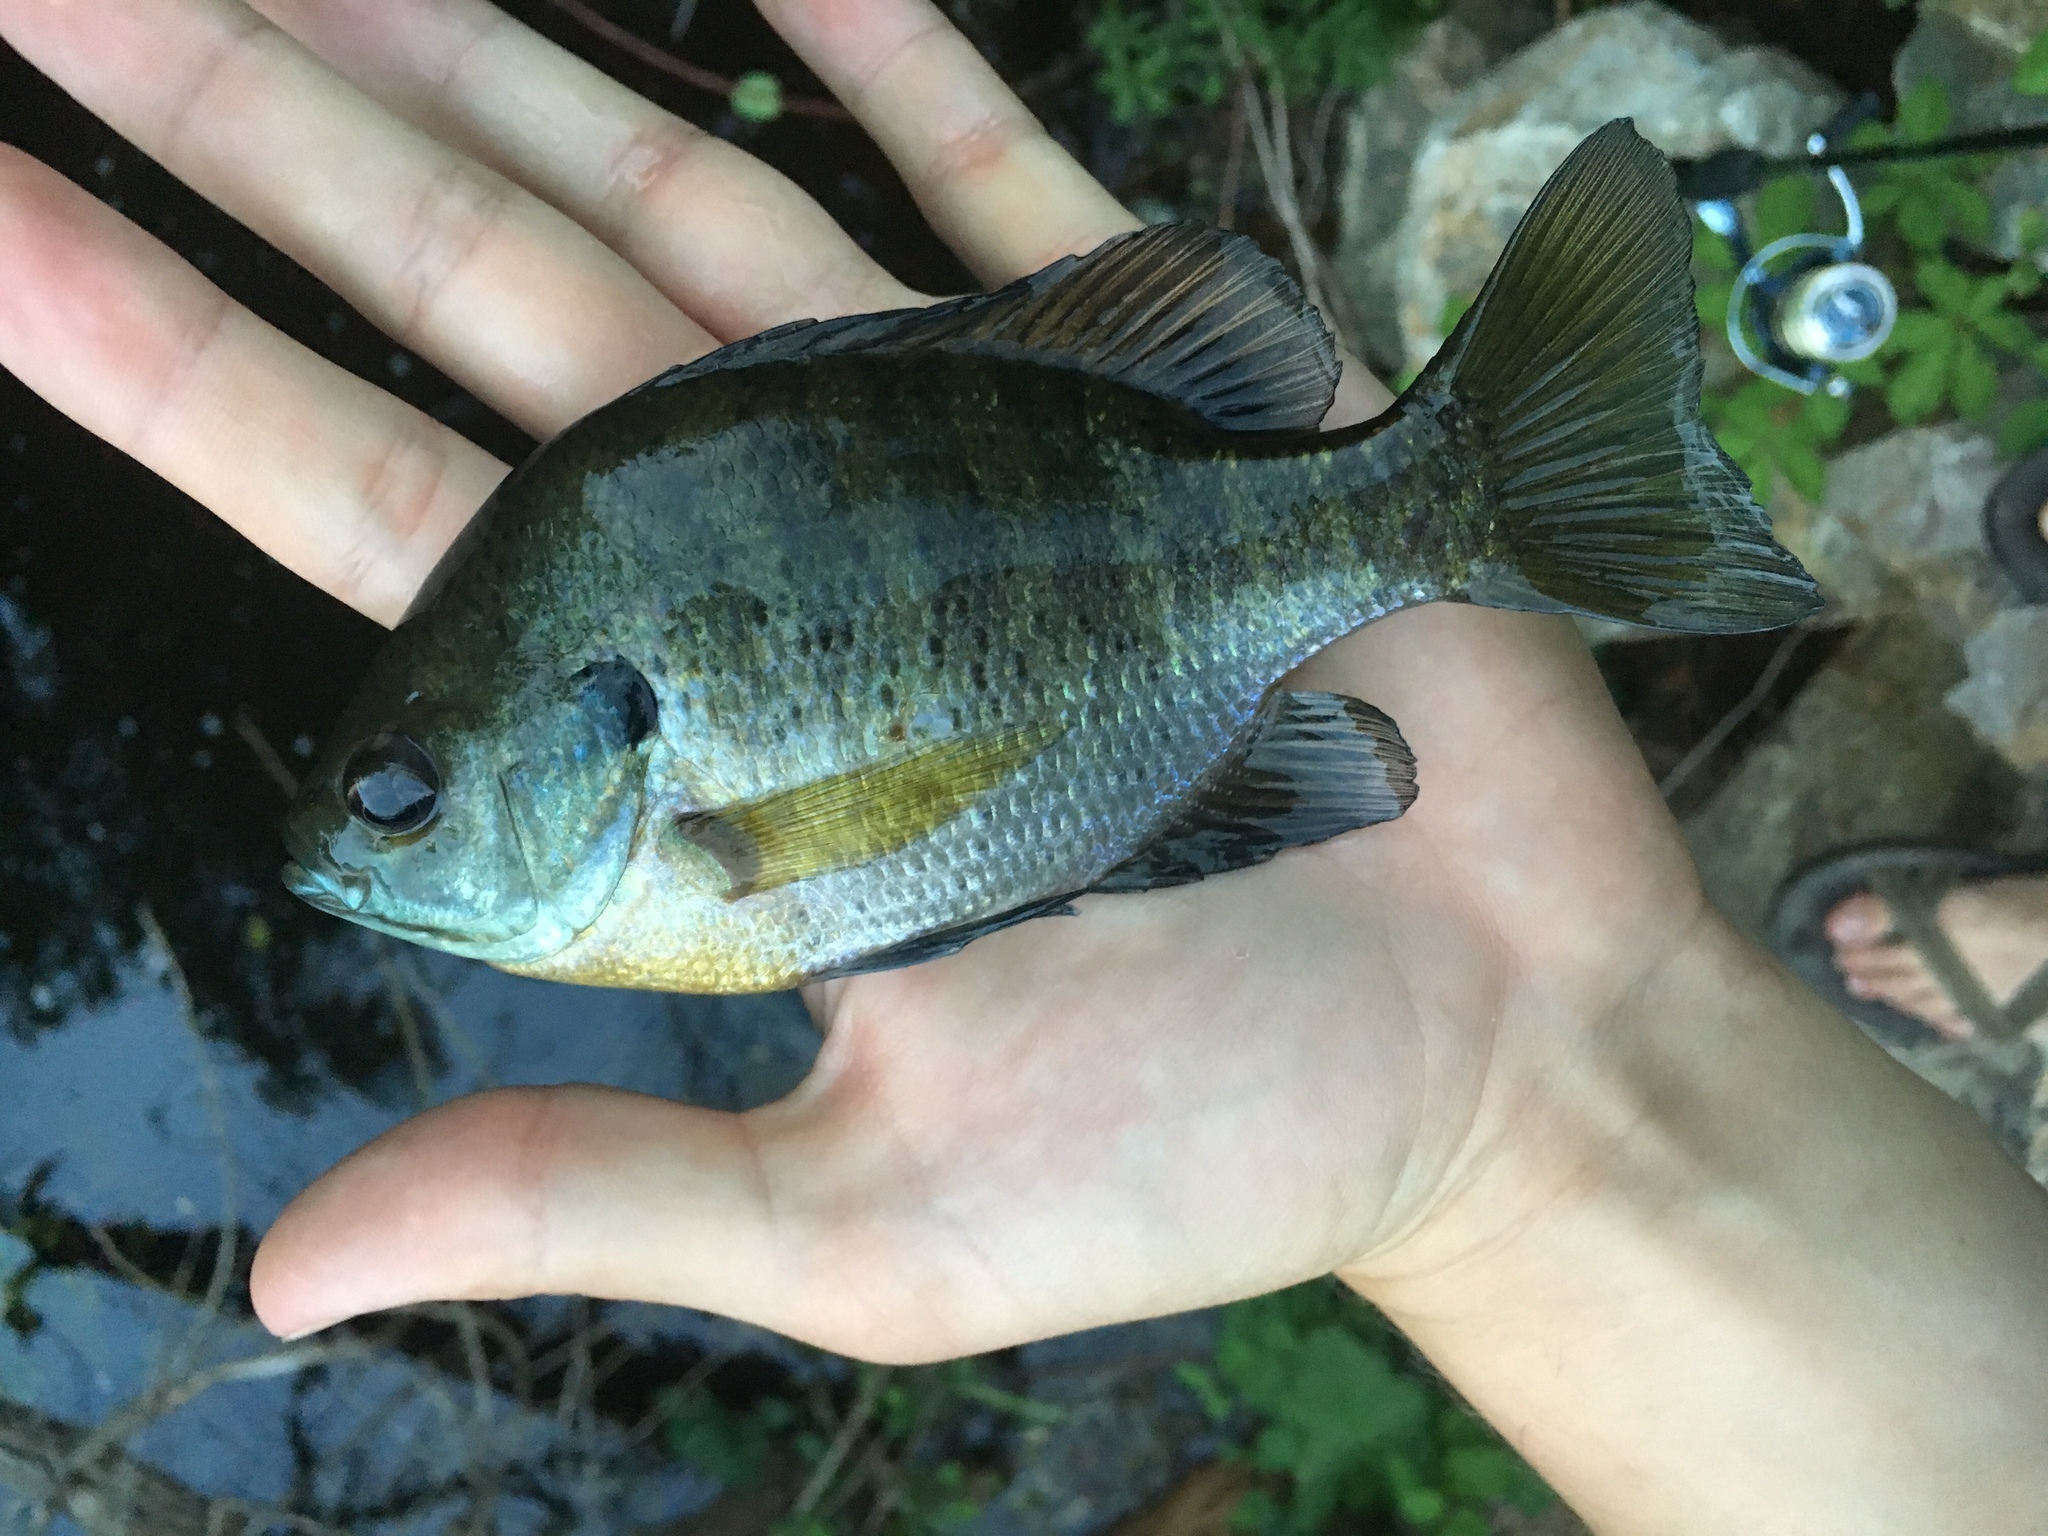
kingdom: Animalia
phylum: Chordata
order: Perciformes
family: Centrarchidae
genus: Lepomis
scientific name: Lepomis macrochirus
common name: Bluegill
